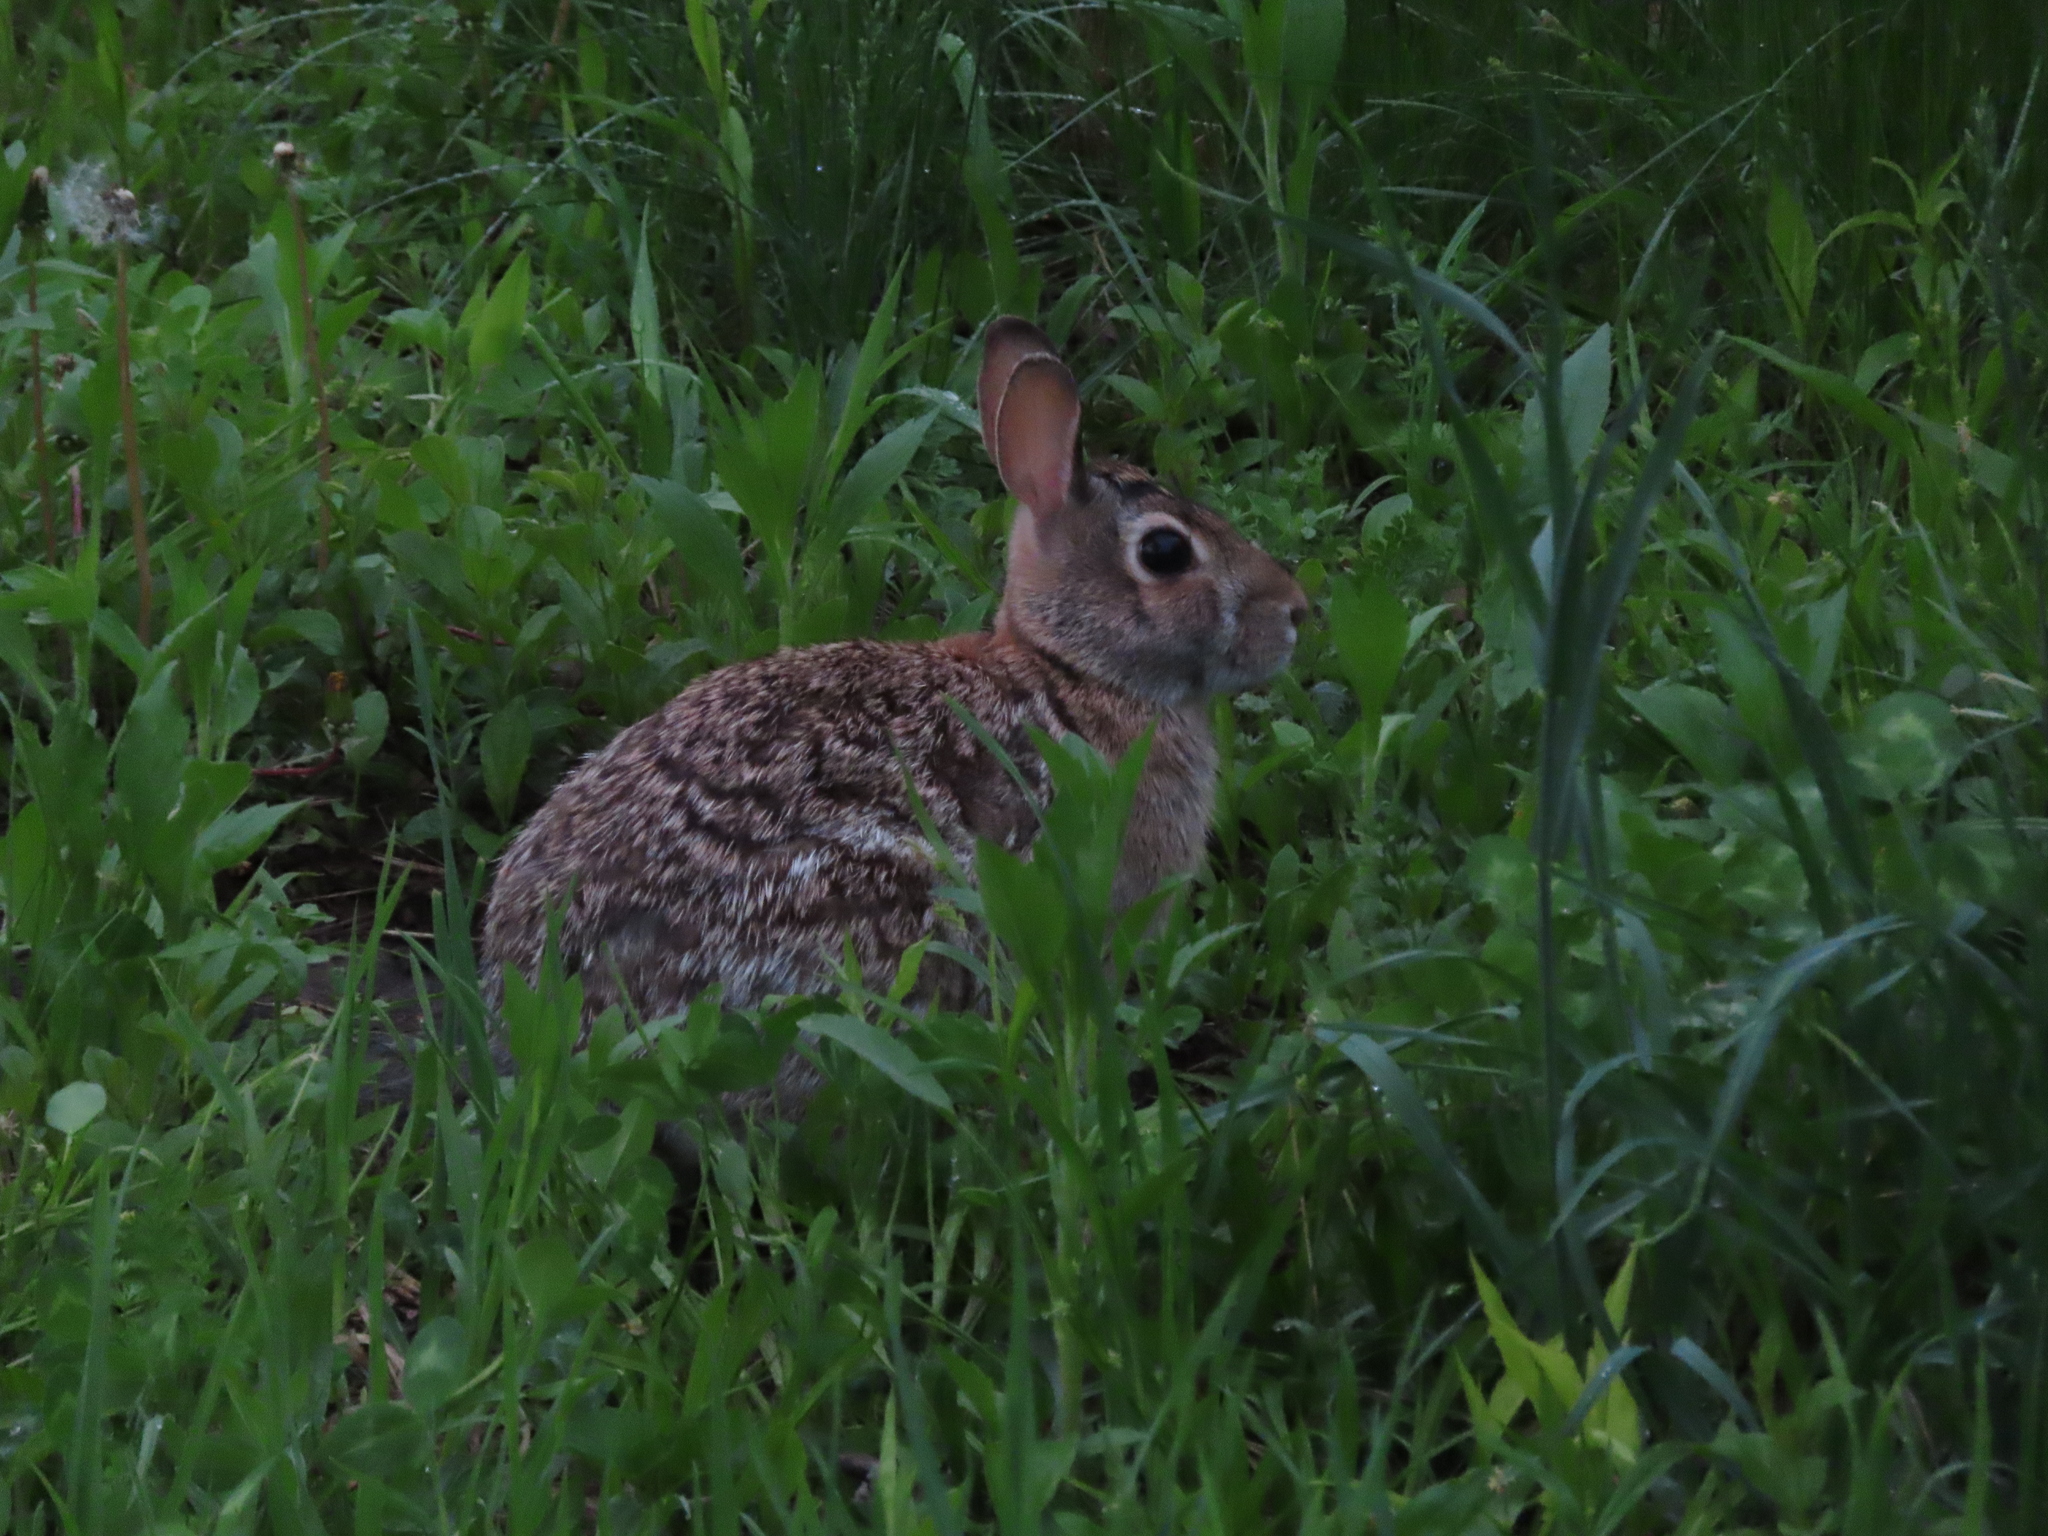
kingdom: Animalia
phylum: Chordata
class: Mammalia
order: Lagomorpha
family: Leporidae
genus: Sylvilagus
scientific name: Sylvilagus floridanus
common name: Eastern cottontail
